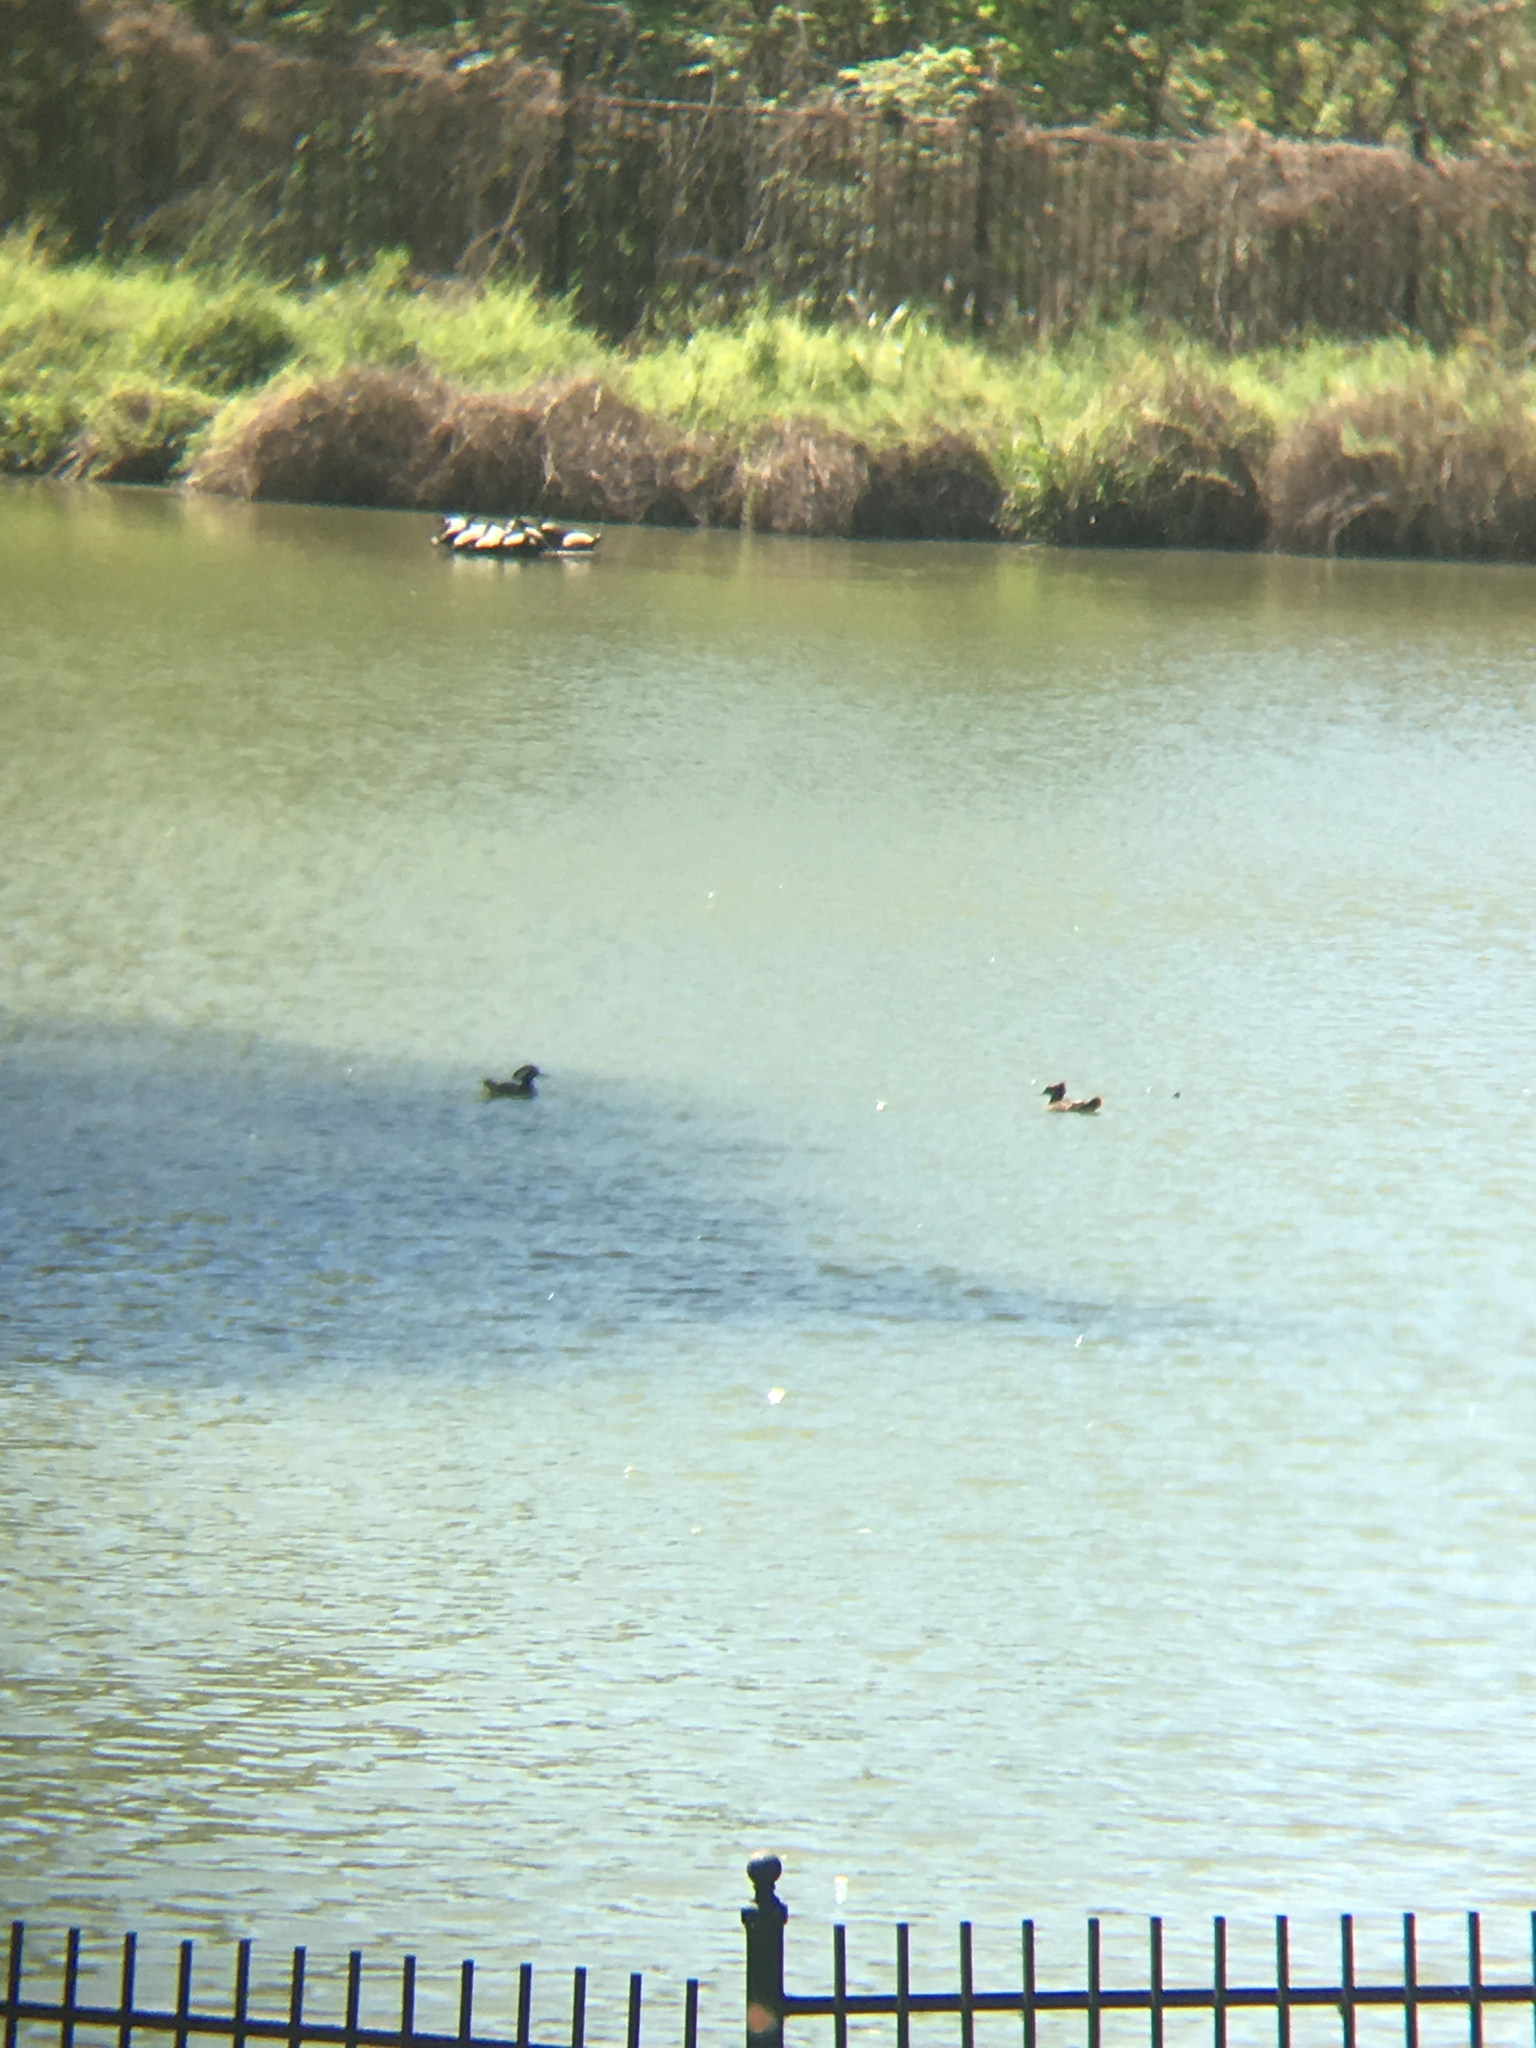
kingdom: Animalia
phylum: Chordata
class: Aves
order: Anseriformes
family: Anatidae
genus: Lophodytes
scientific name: Lophodytes cucullatus
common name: Hooded merganser
